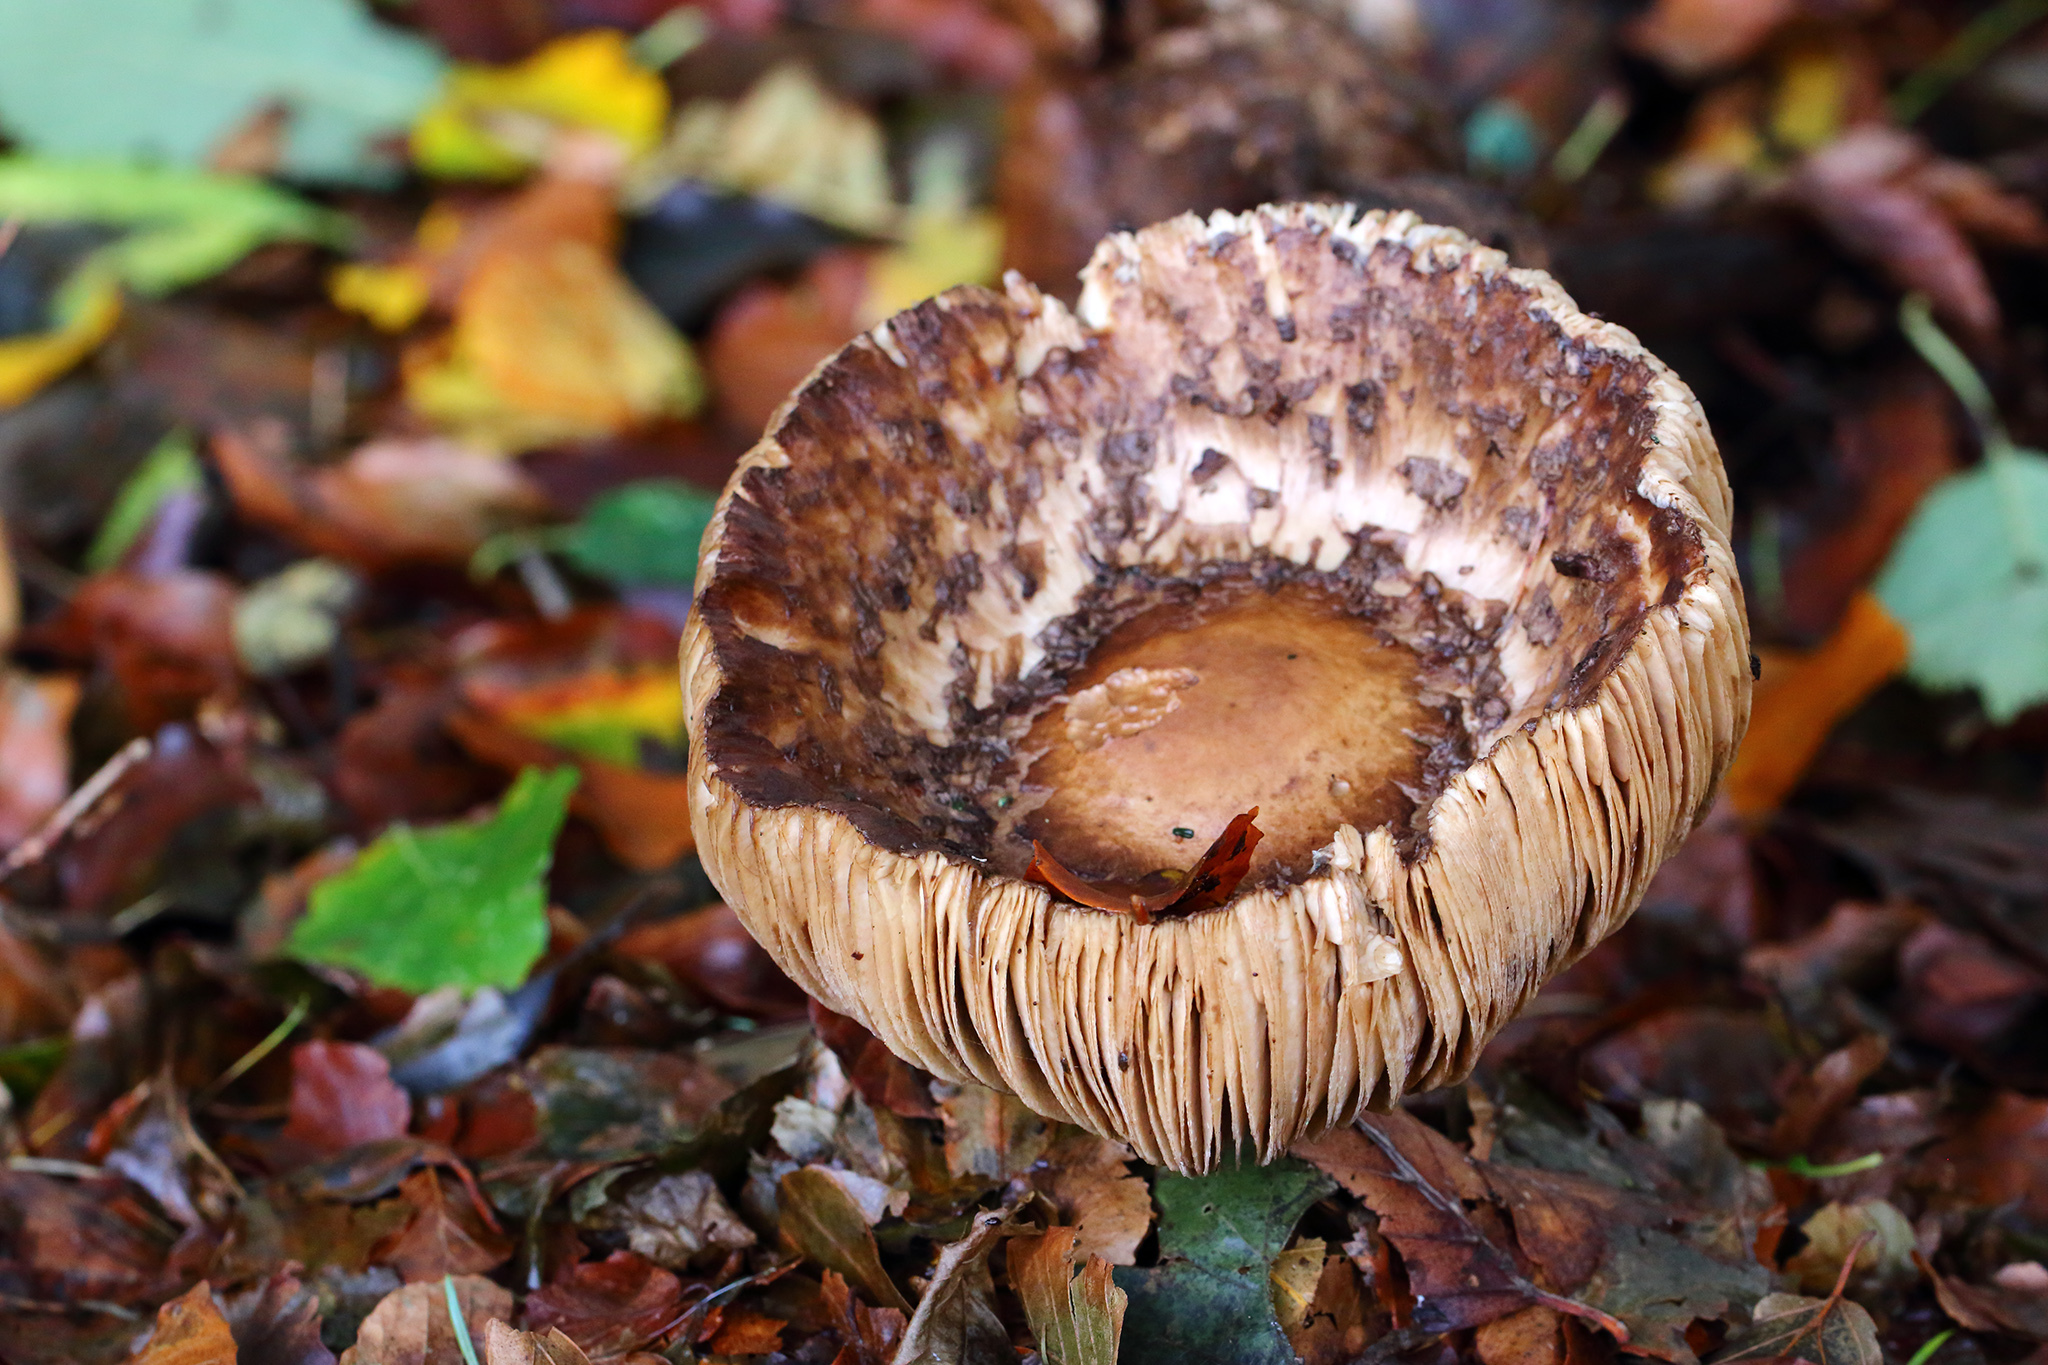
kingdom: Fungi
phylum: Basidiomycota
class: Agaricomycetes
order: Agaricales
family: Agaricaceae
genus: Chlorophyllum
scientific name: Chlorophyllum rhacodes
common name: Shaggy parasol
